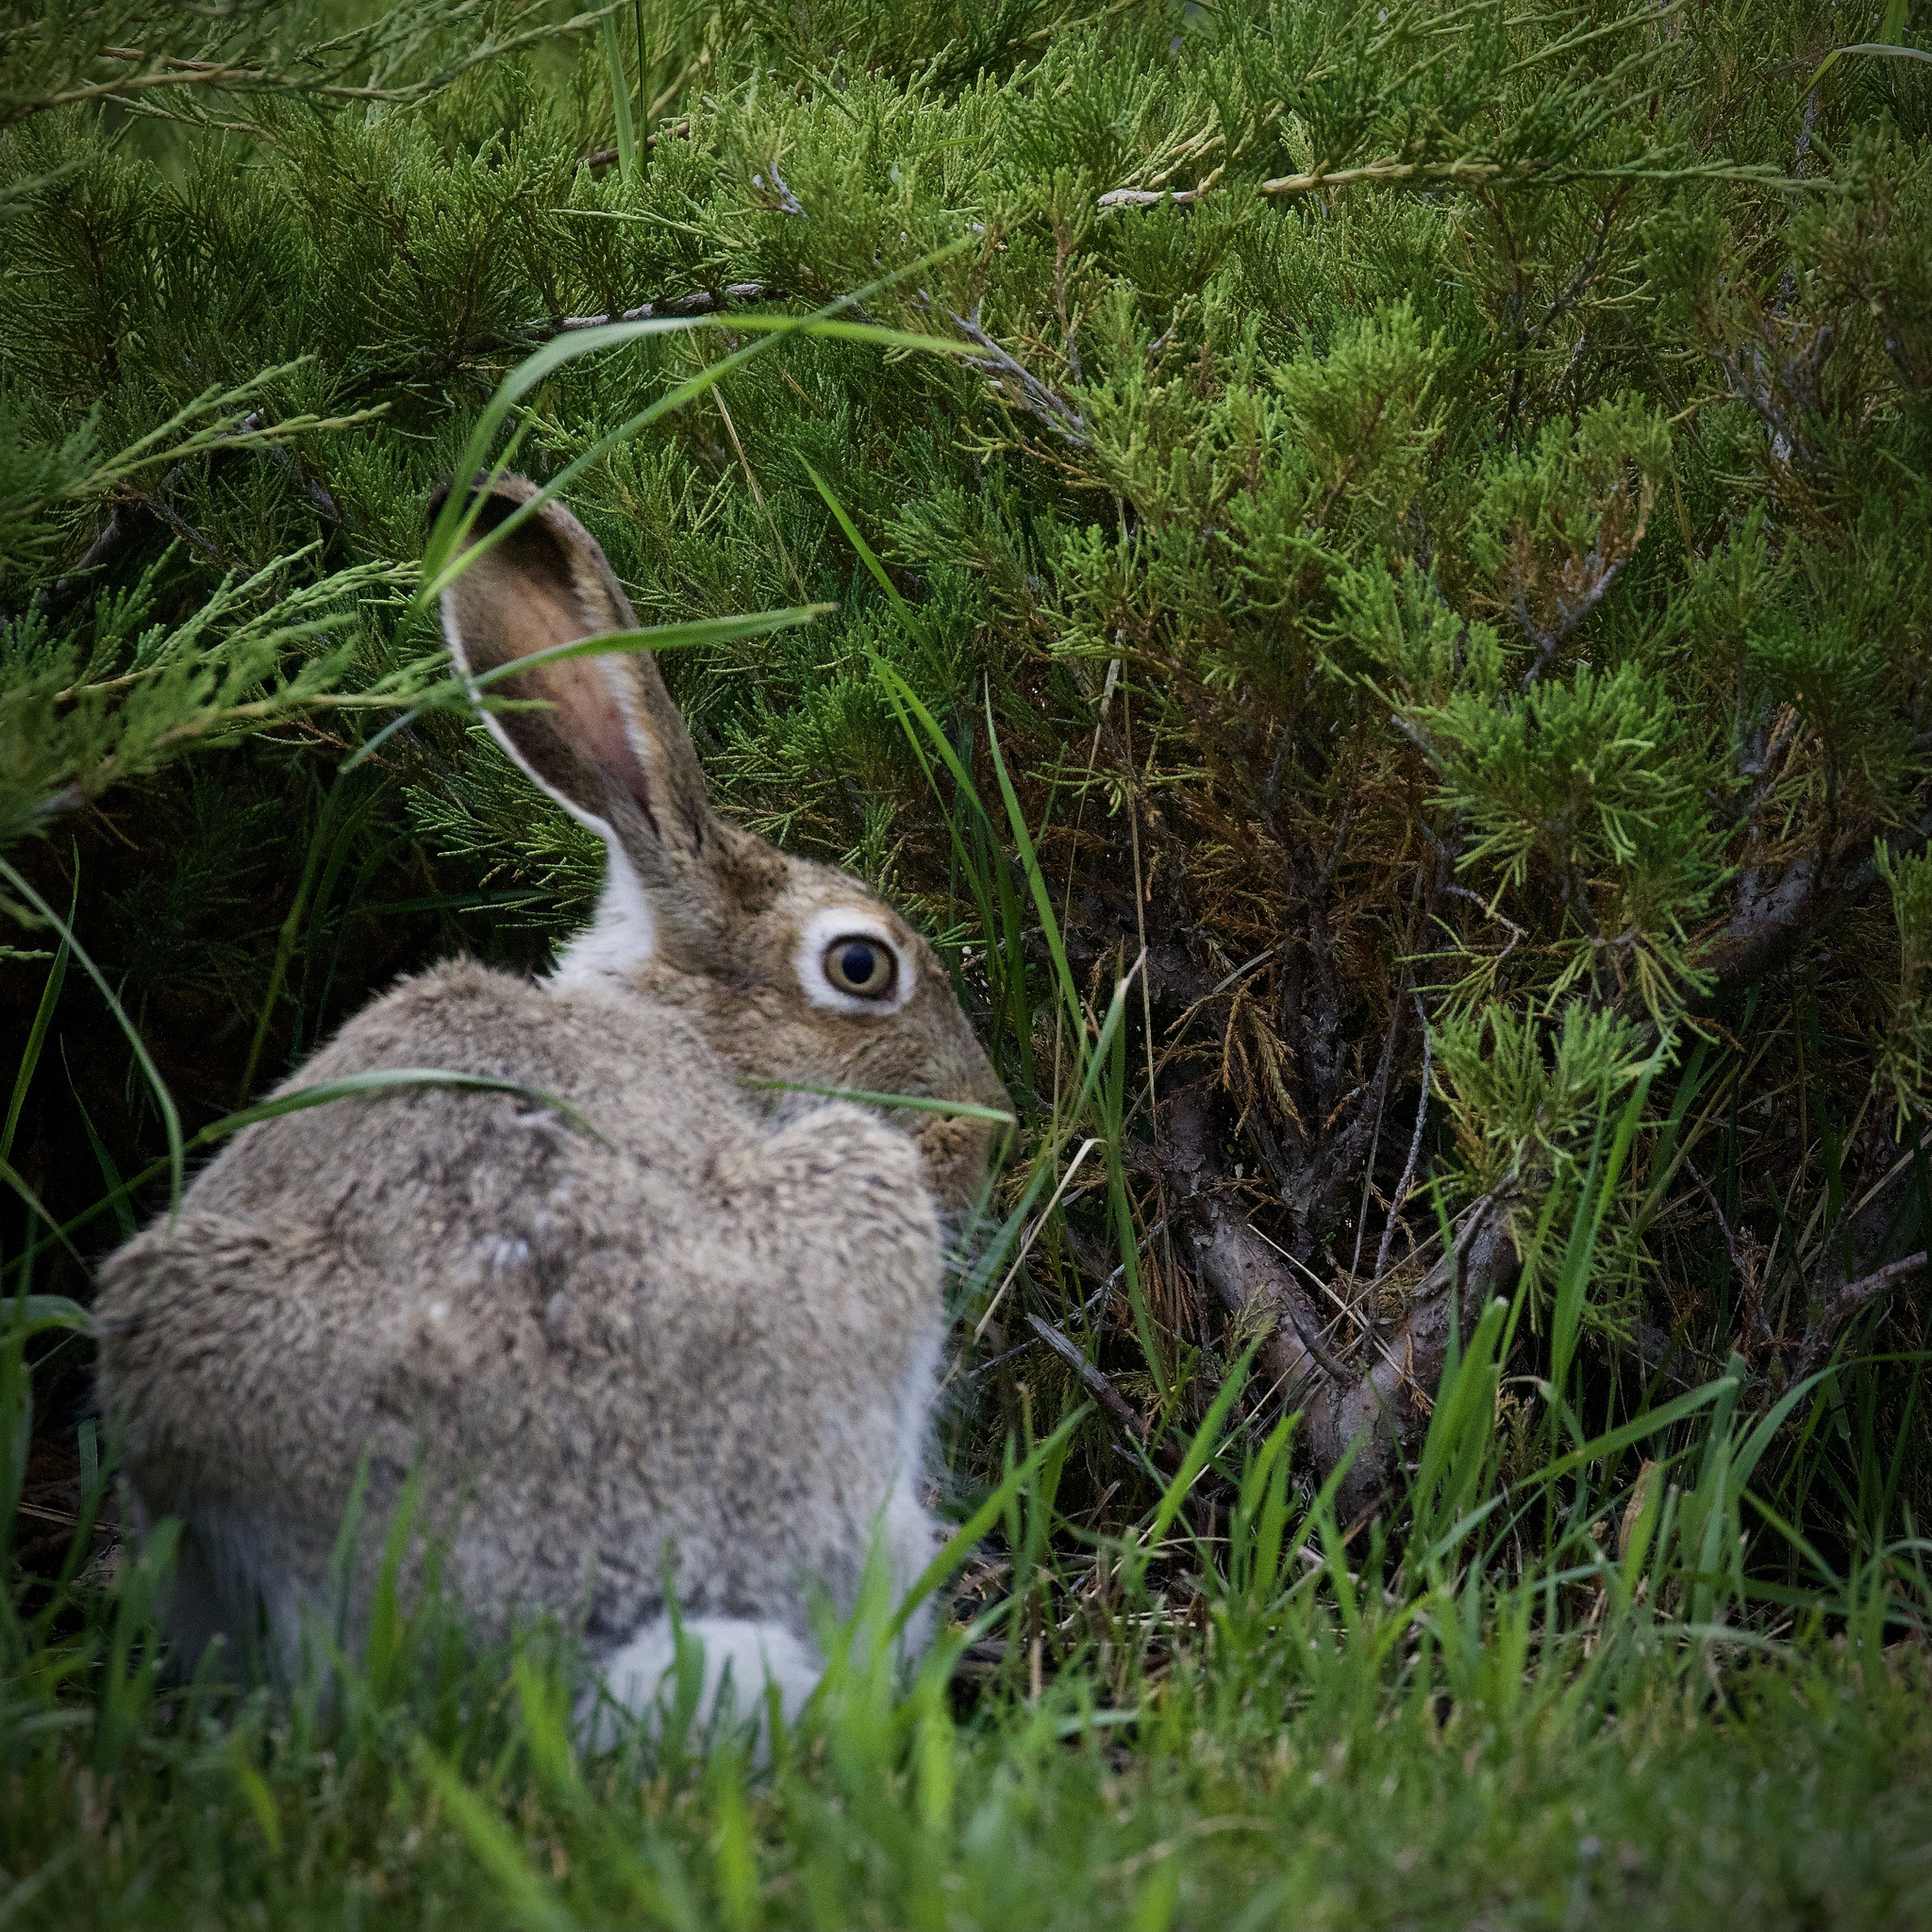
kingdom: Animalia
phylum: Chordata
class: Mammalia
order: Lagomorpha
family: Leporidae
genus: Lepus
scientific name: Lepus townsendii
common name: White-tailed jackrabbit
